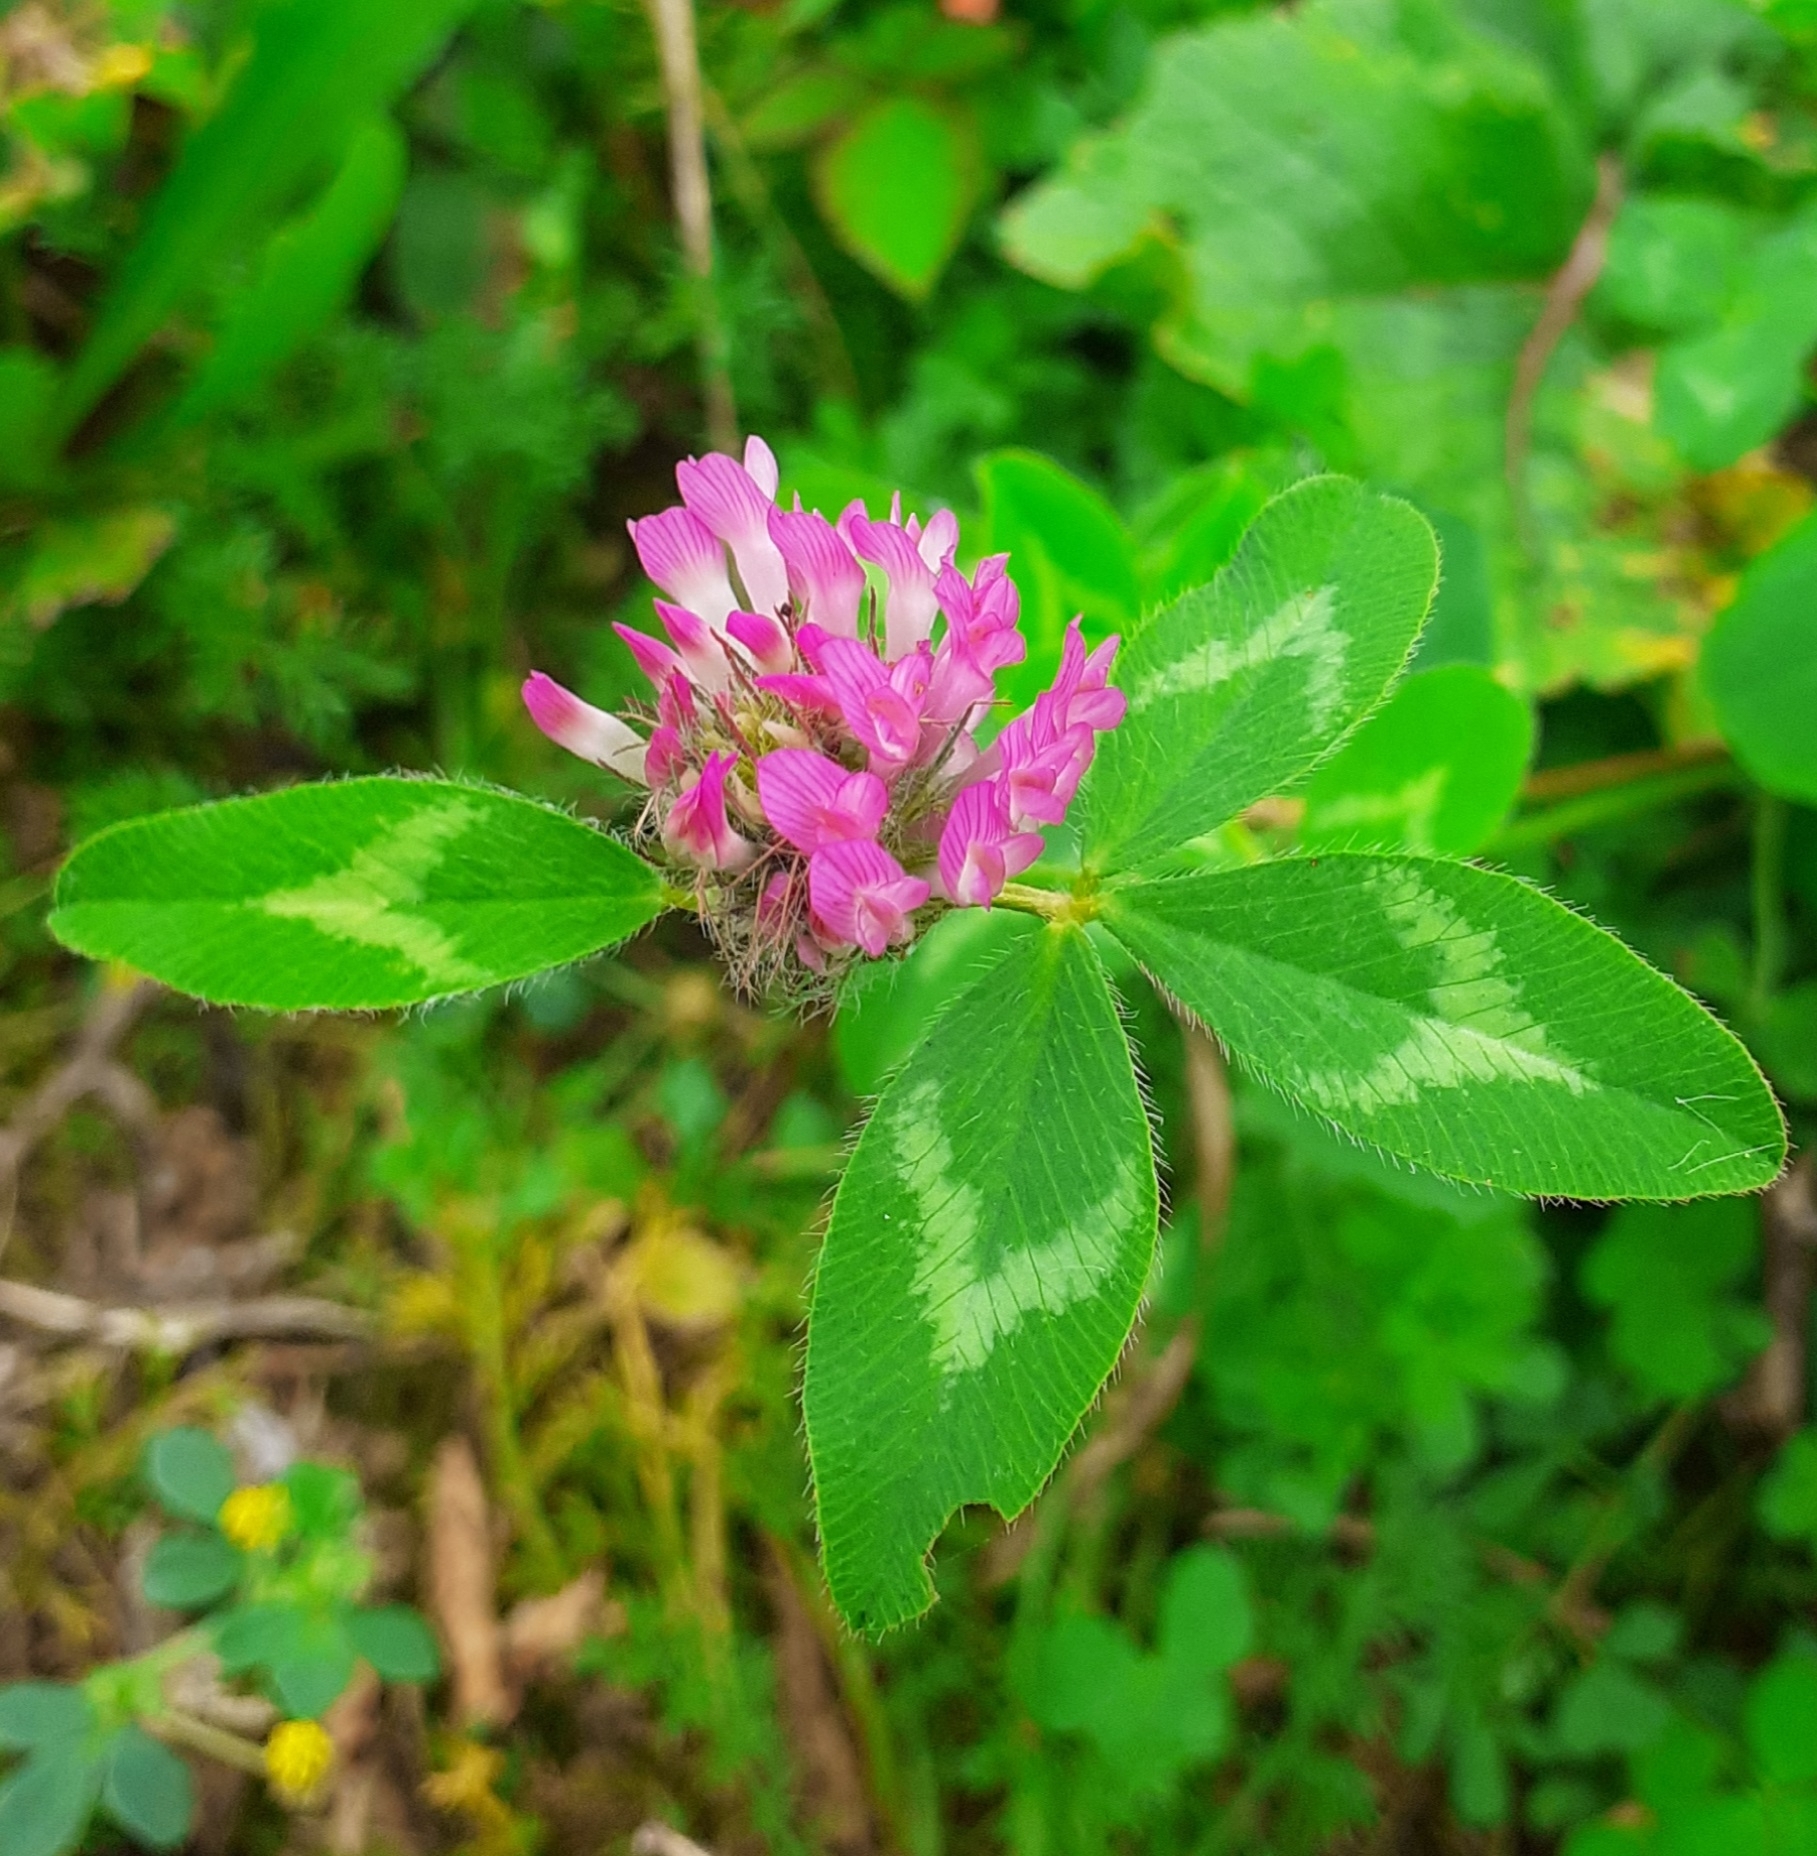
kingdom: Plantae
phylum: Tracheophyta
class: Magnoliopsida
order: Fabales
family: Fabaceae
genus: Trifolium
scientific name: Trifolium pratense
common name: Red clover
